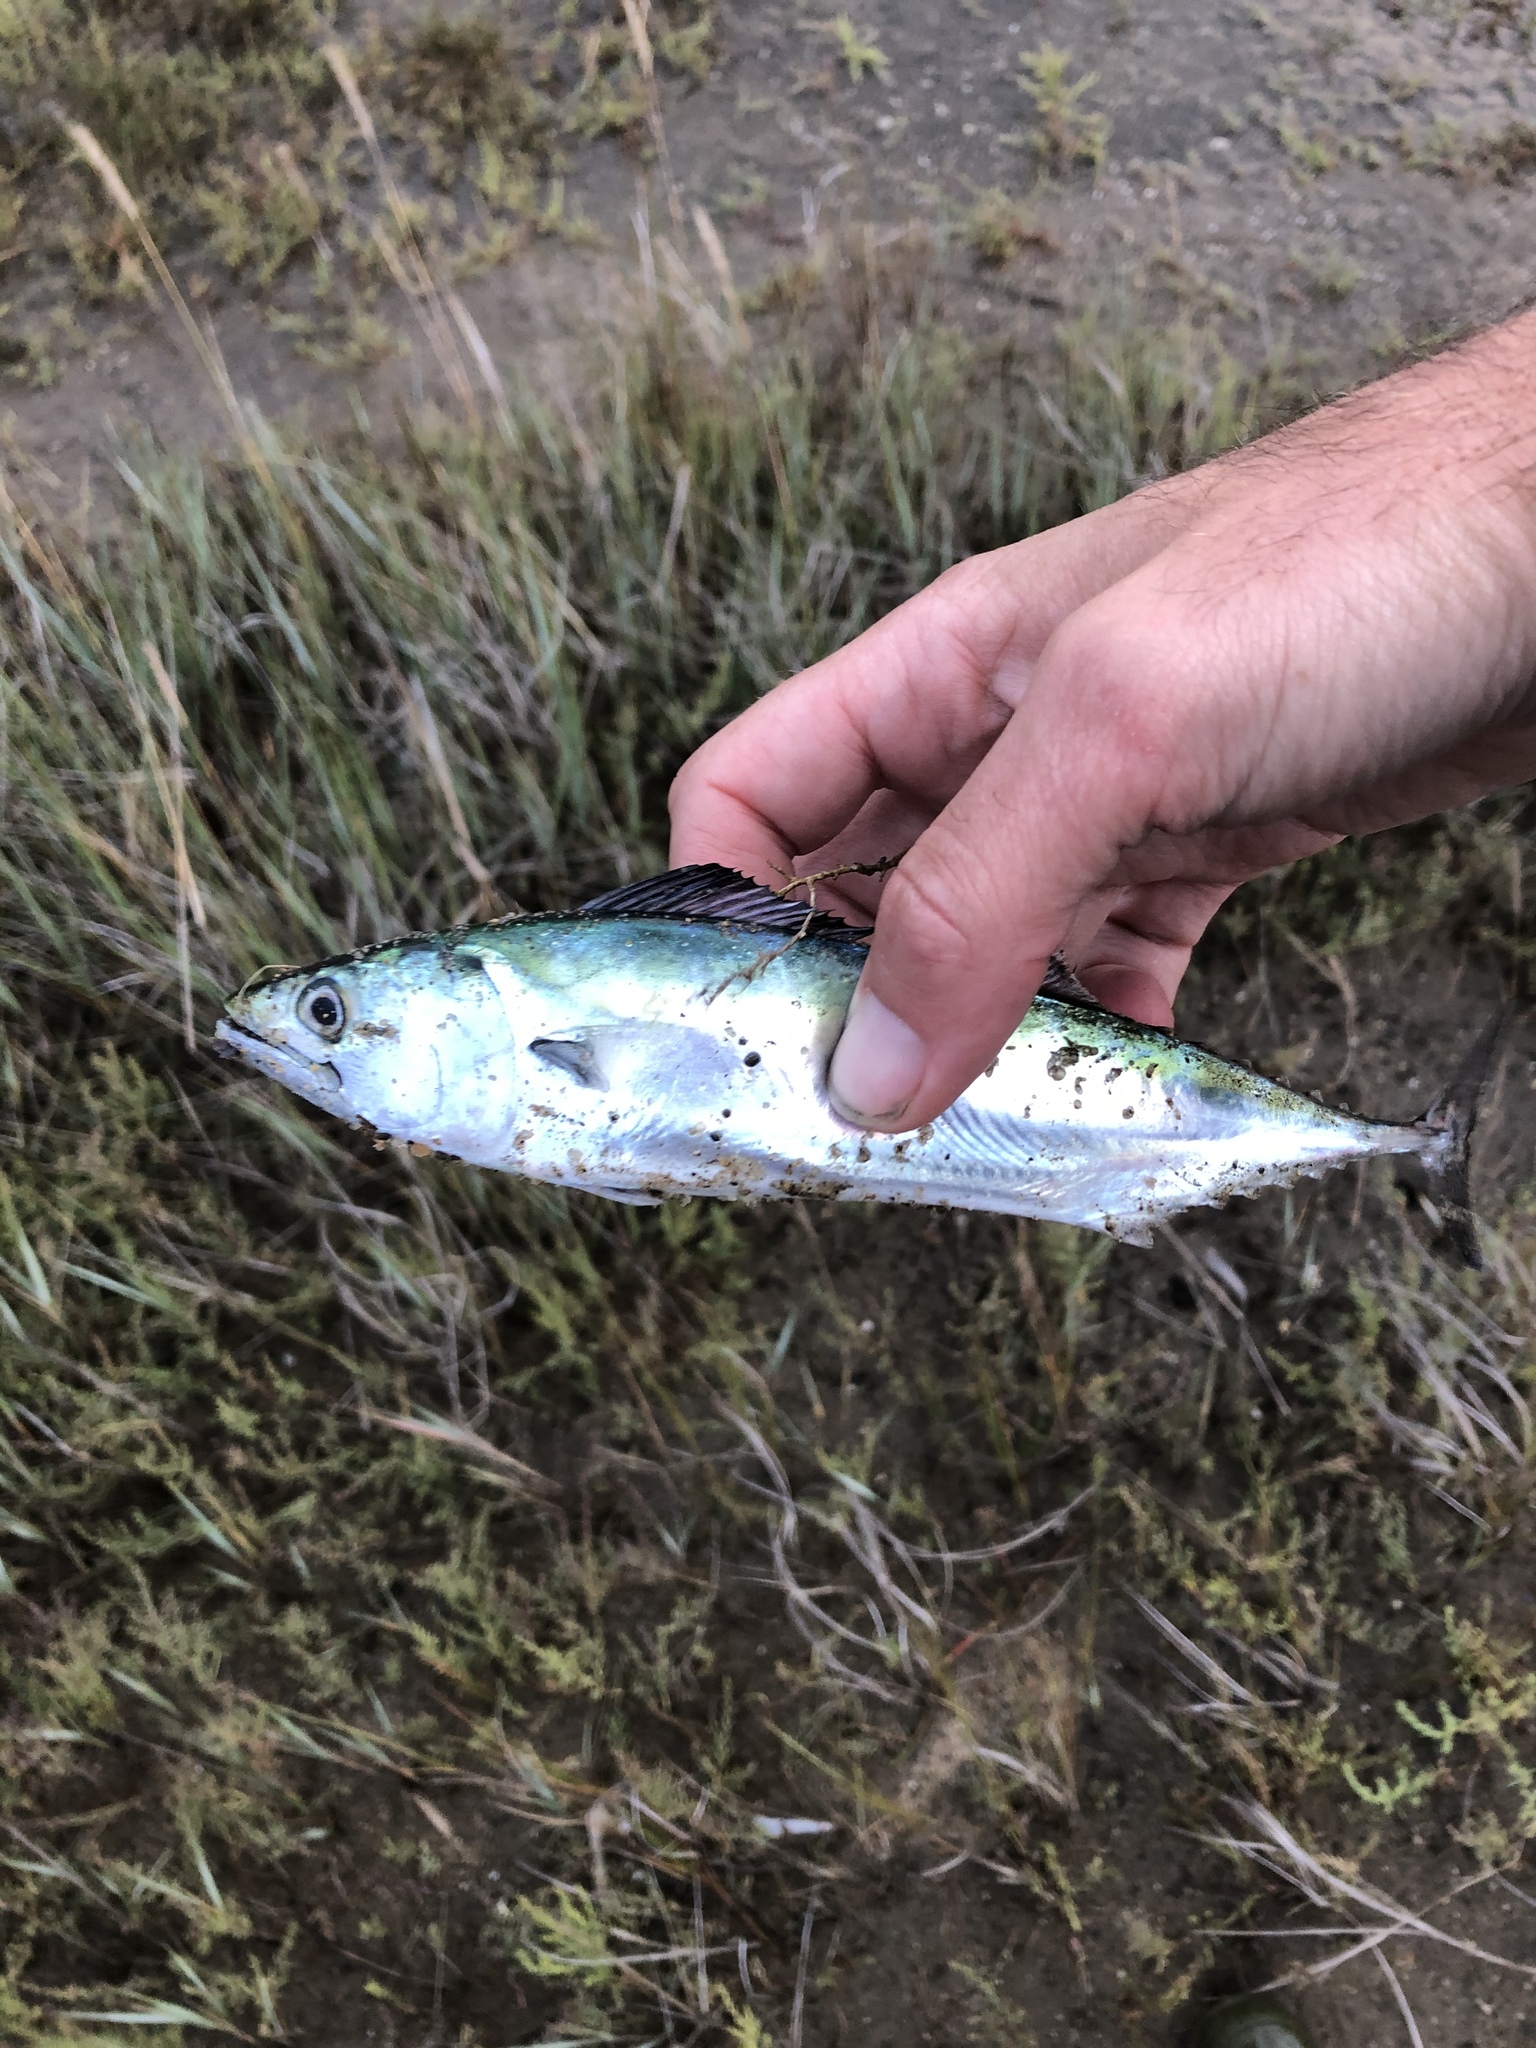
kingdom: Animalia
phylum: Chordata
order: Perciformes
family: Scombridae
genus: Sarda
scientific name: Sarda sarda
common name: Atlantic bonito
